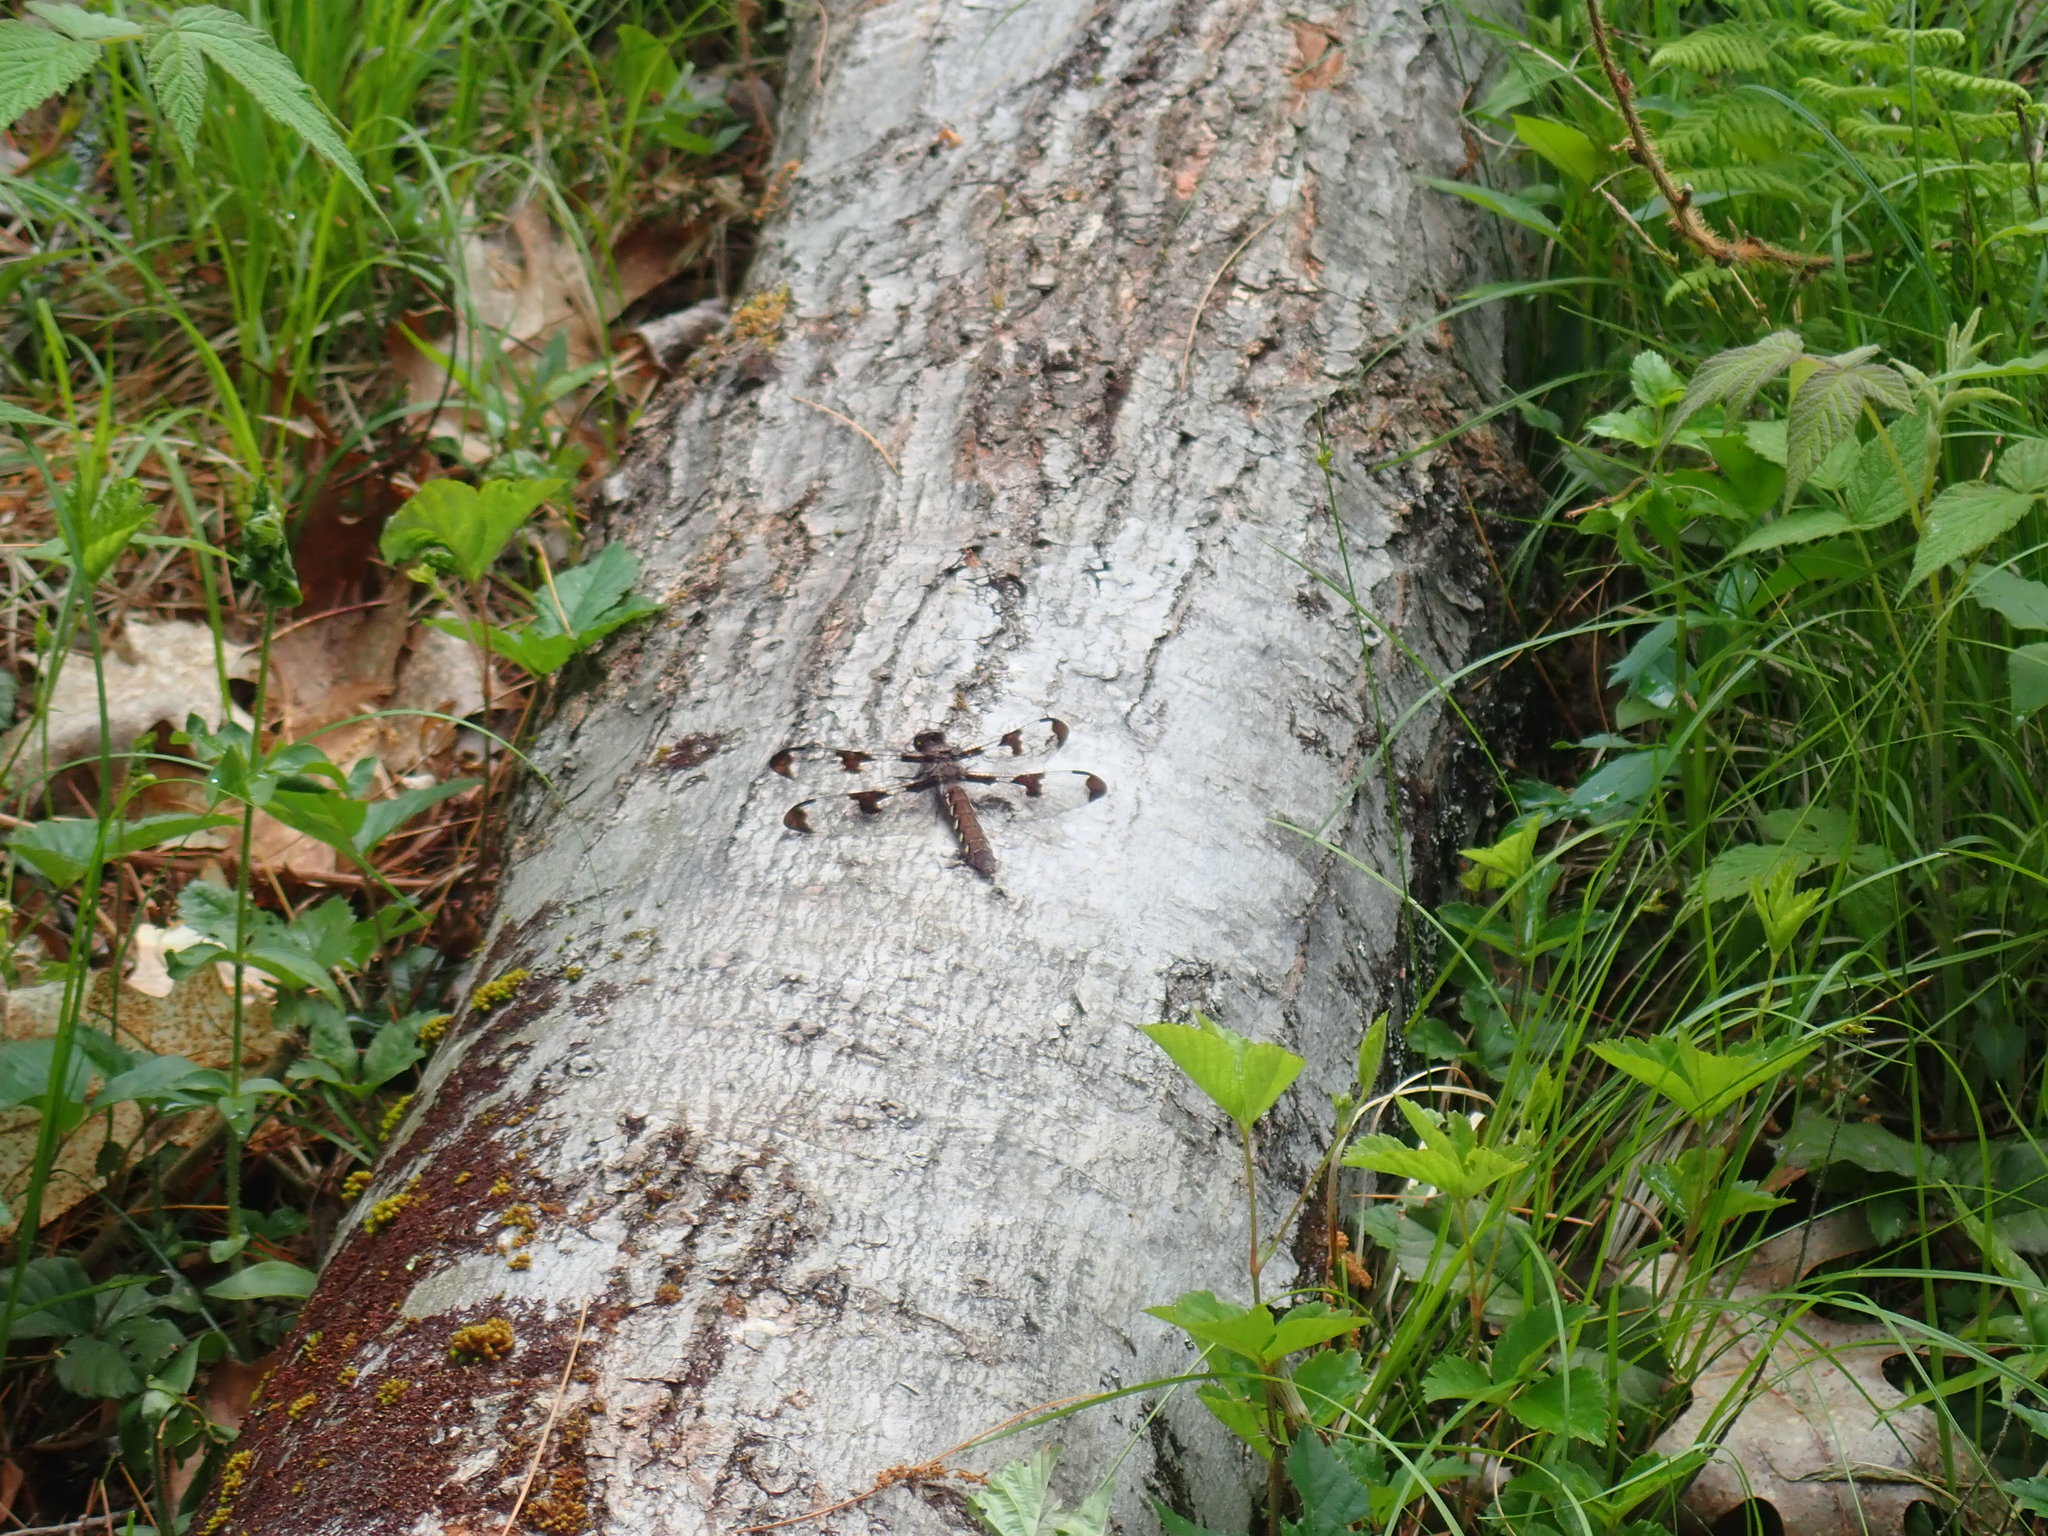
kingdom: Animalia
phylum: Arthropoda
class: Insecta
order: Odonata
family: Libellulidae
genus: Plathemis
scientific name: Plathemis lydia
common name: Common whitetail
